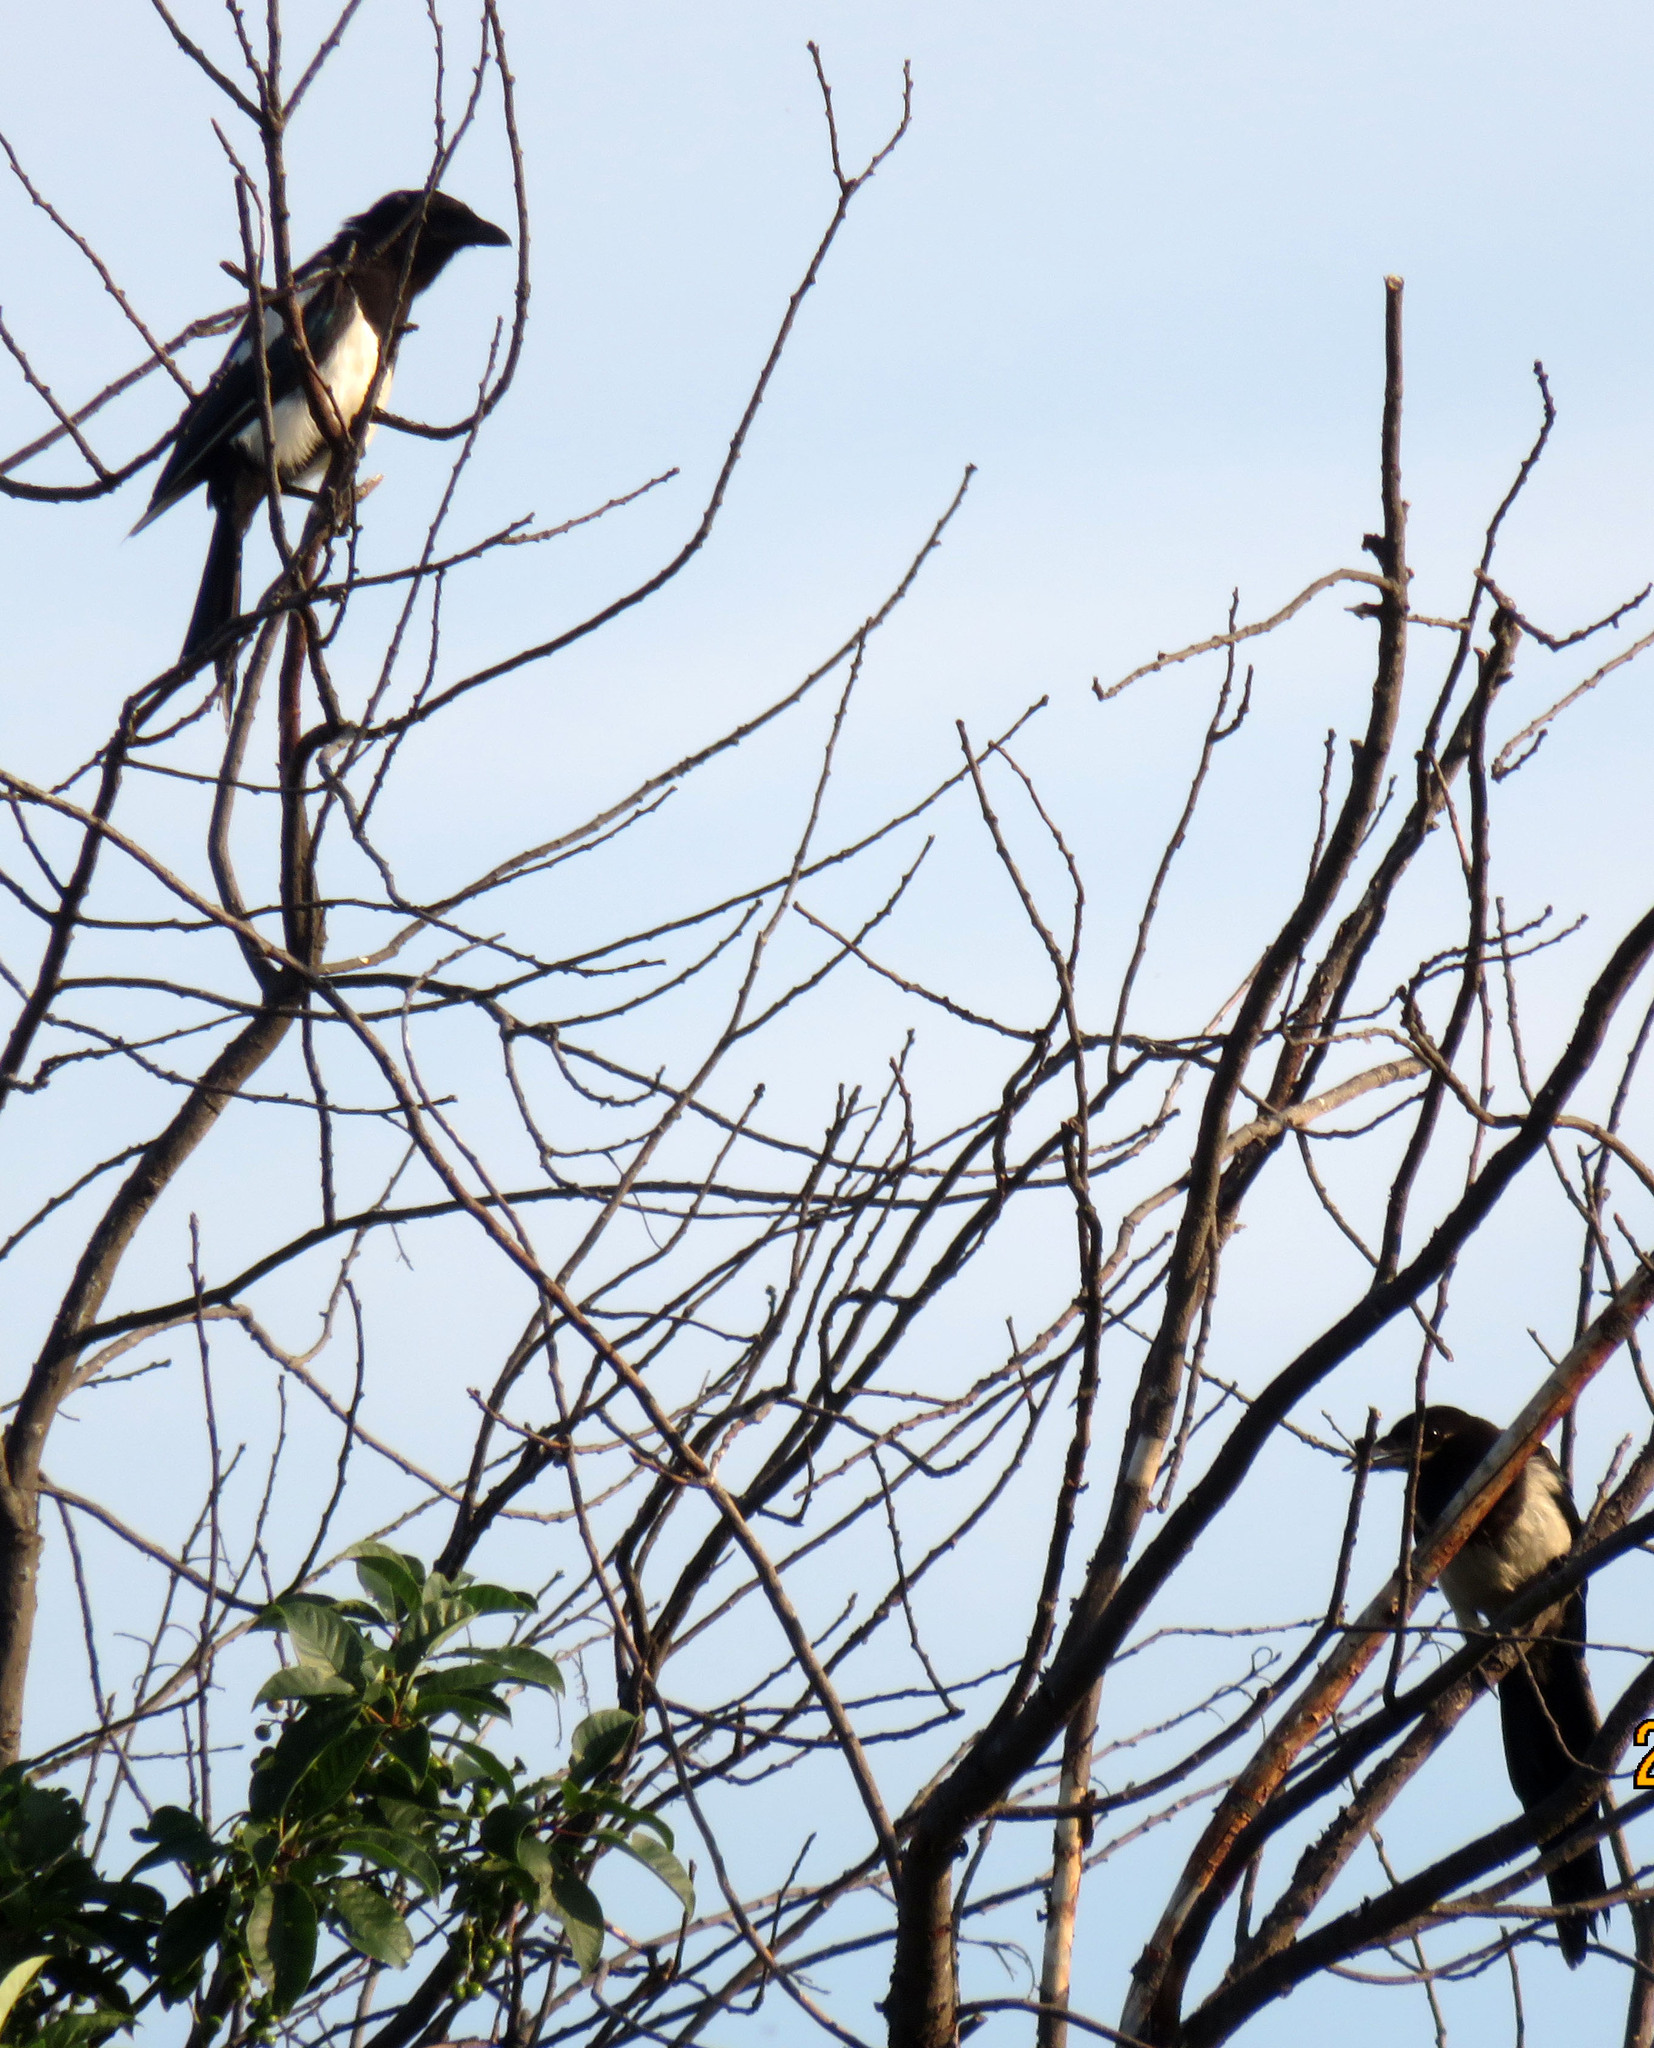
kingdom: Animalia
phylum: Chordata
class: Aves
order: Passeriformes
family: Corvidae
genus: Pica
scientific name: Pica pica
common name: Eurasian magpie
